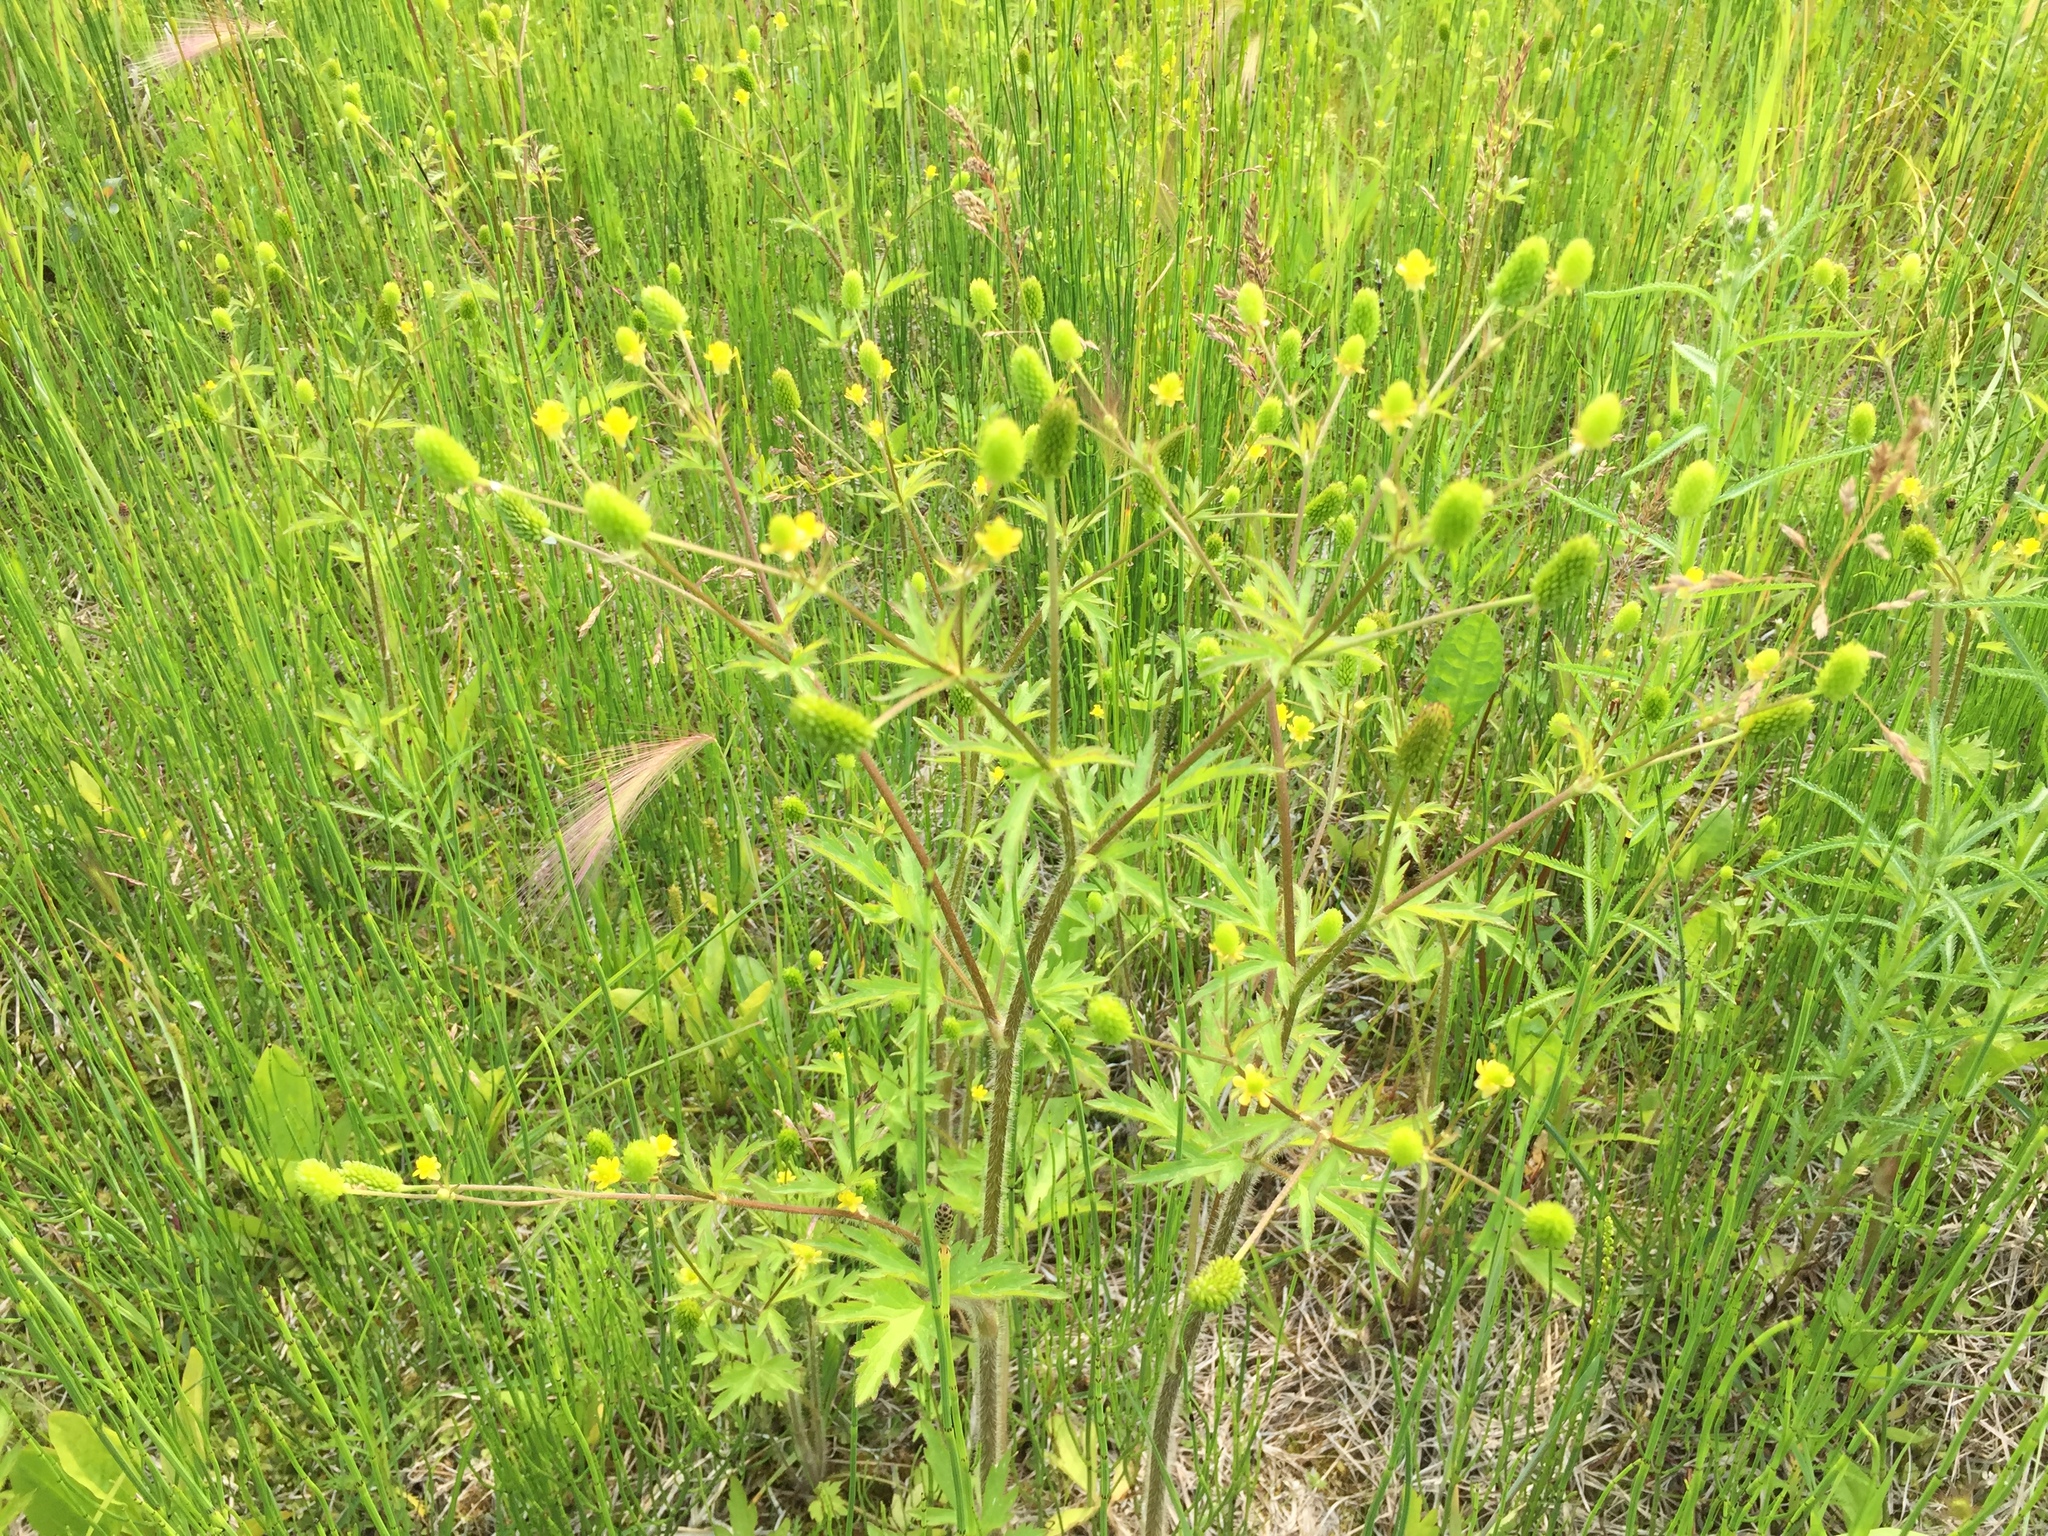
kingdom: Plantae
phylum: Tracheophyta
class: Magnoliopsida
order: Ranunculales
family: Ranunculaceae
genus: Ranunculus
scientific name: Ranunculus macounii
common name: Macoun's buttercup
